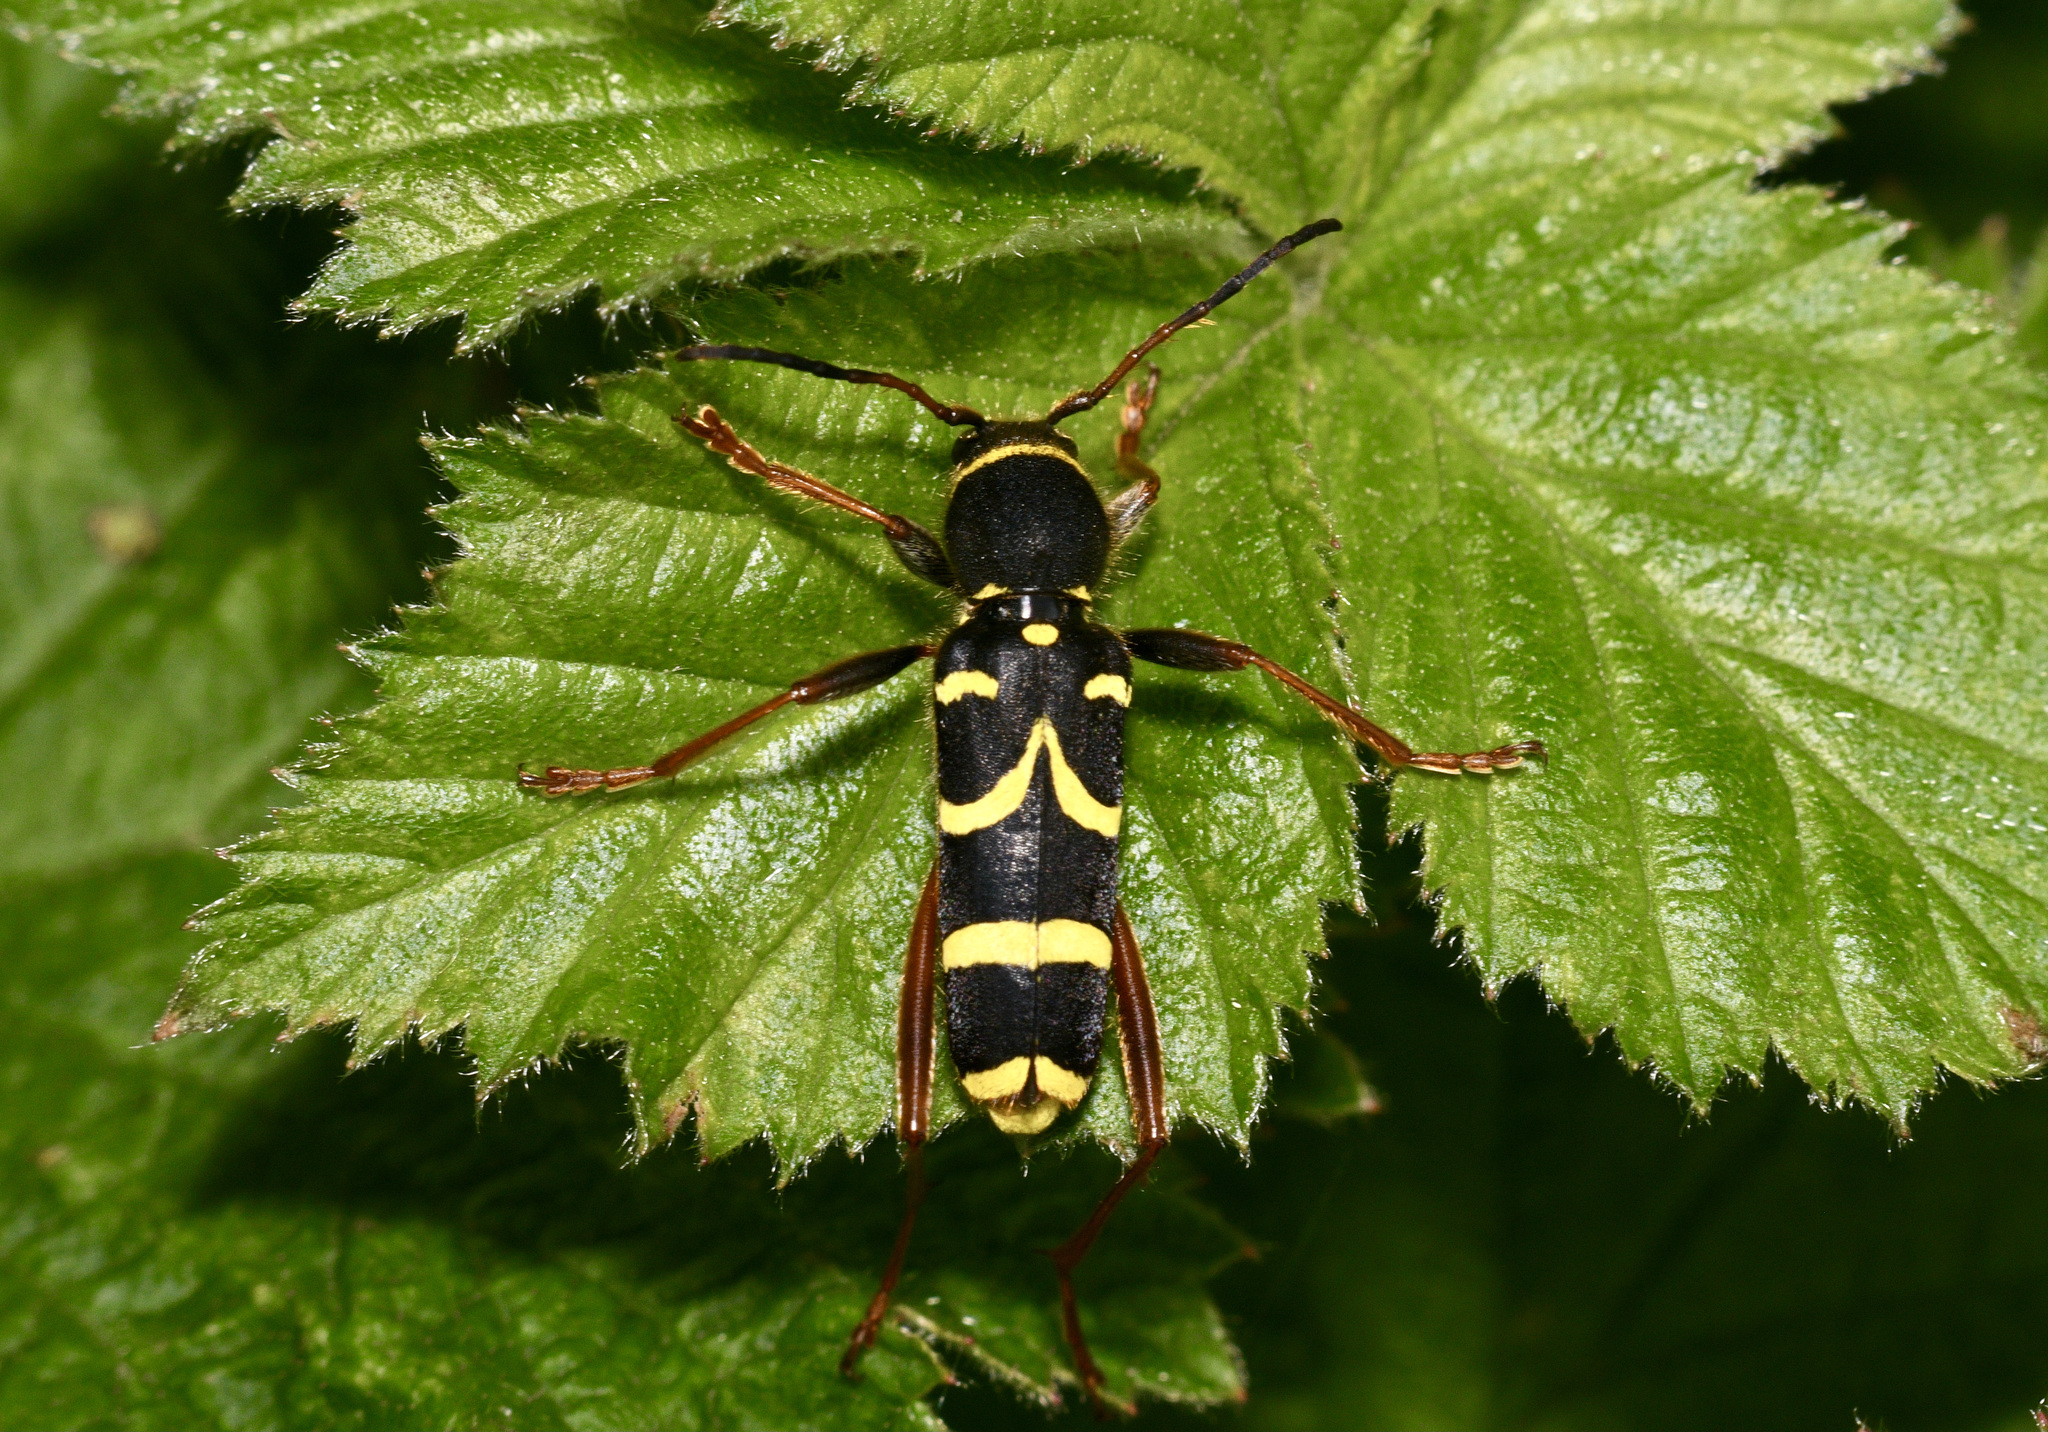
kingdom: Animalia
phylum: Arthropoda
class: Insecta
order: Coleoptera
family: Cerambycidae
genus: Clytus
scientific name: Clytus arietis
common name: Wasp beetle
